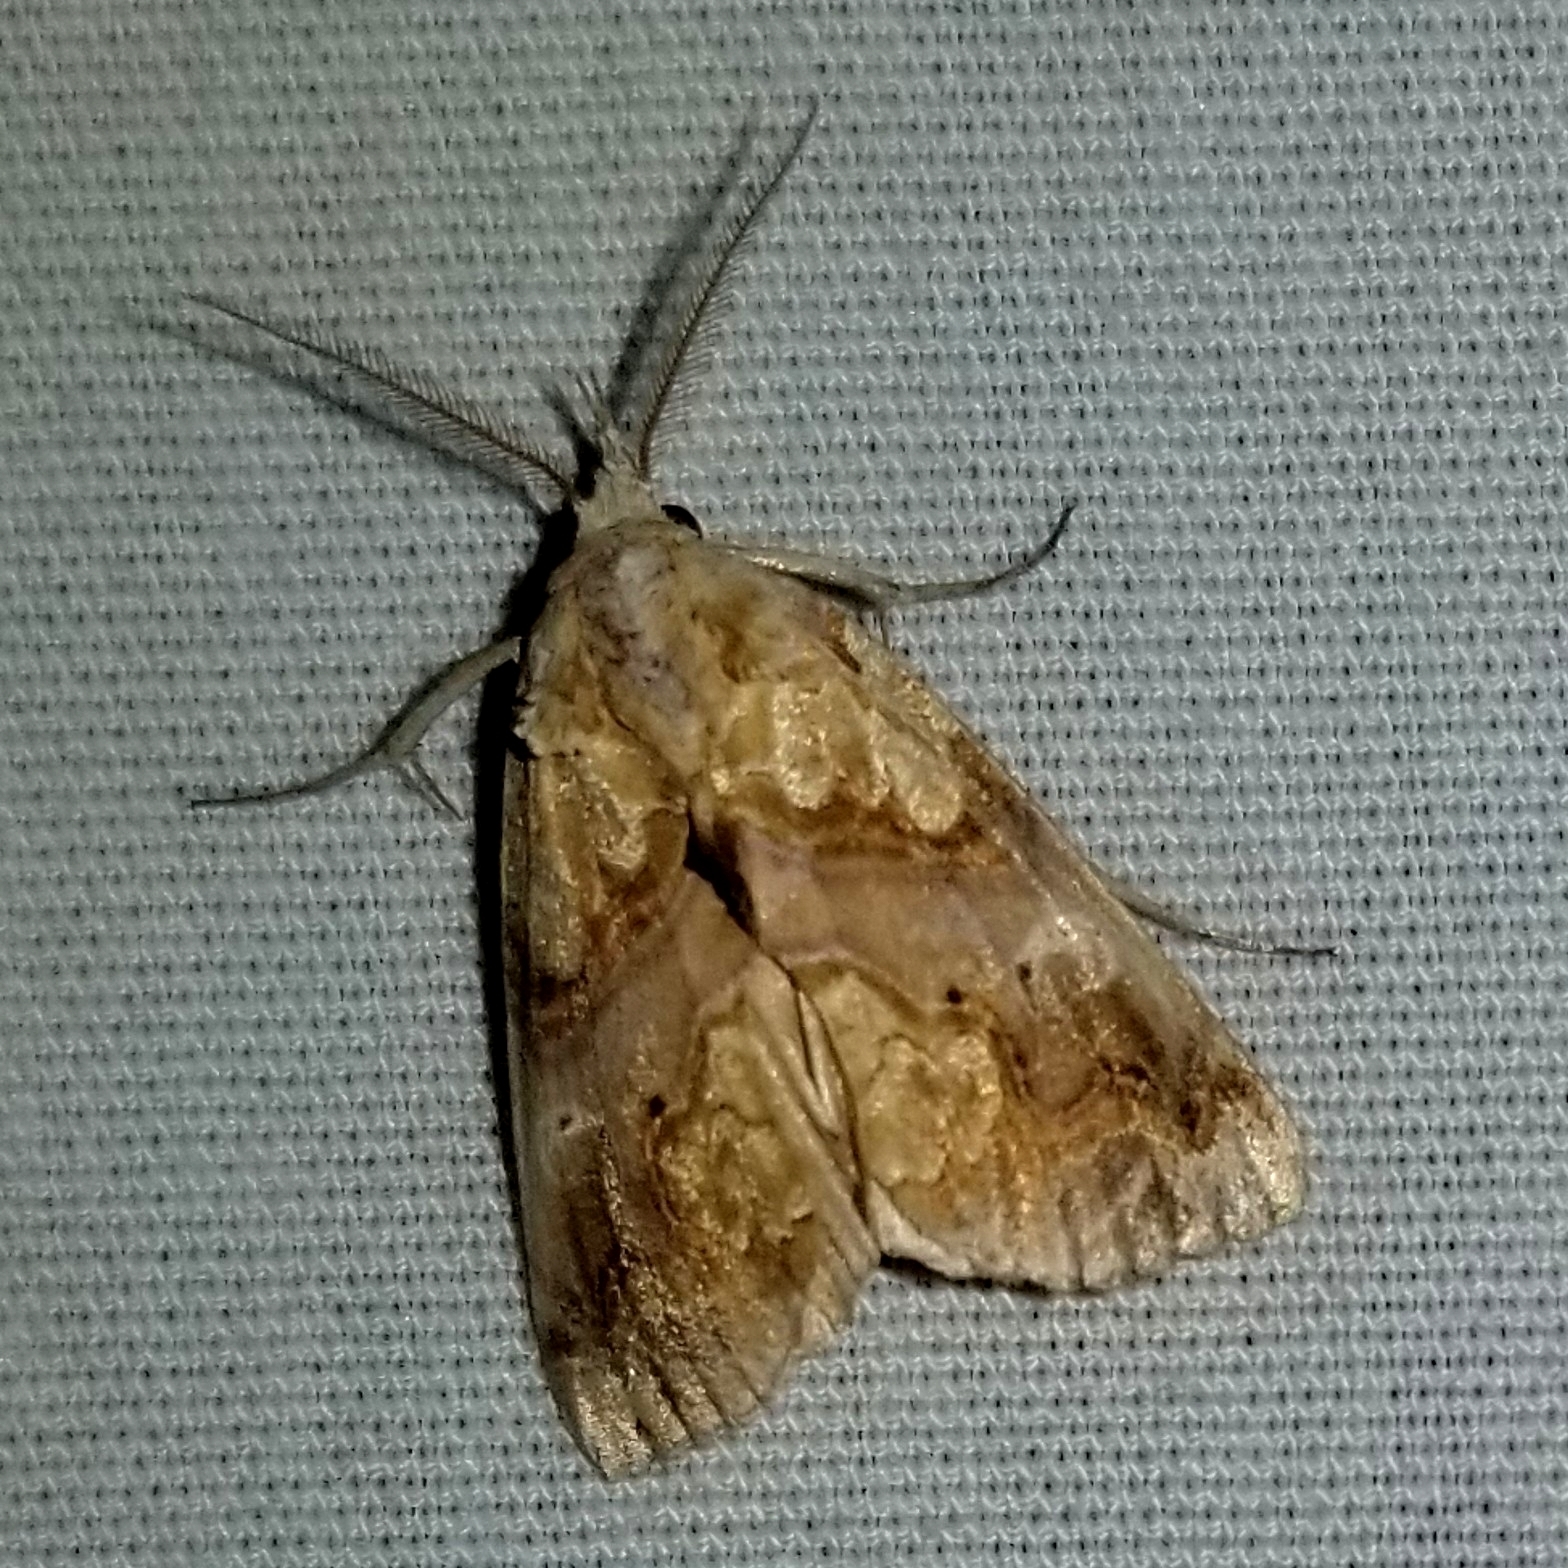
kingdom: Animalia
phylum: Arthropoda
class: Insecta
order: Lepidoptera
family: Erebidae
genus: Plusiodonta
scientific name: Plusiodonta compressipalpis
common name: Moonseed moth
